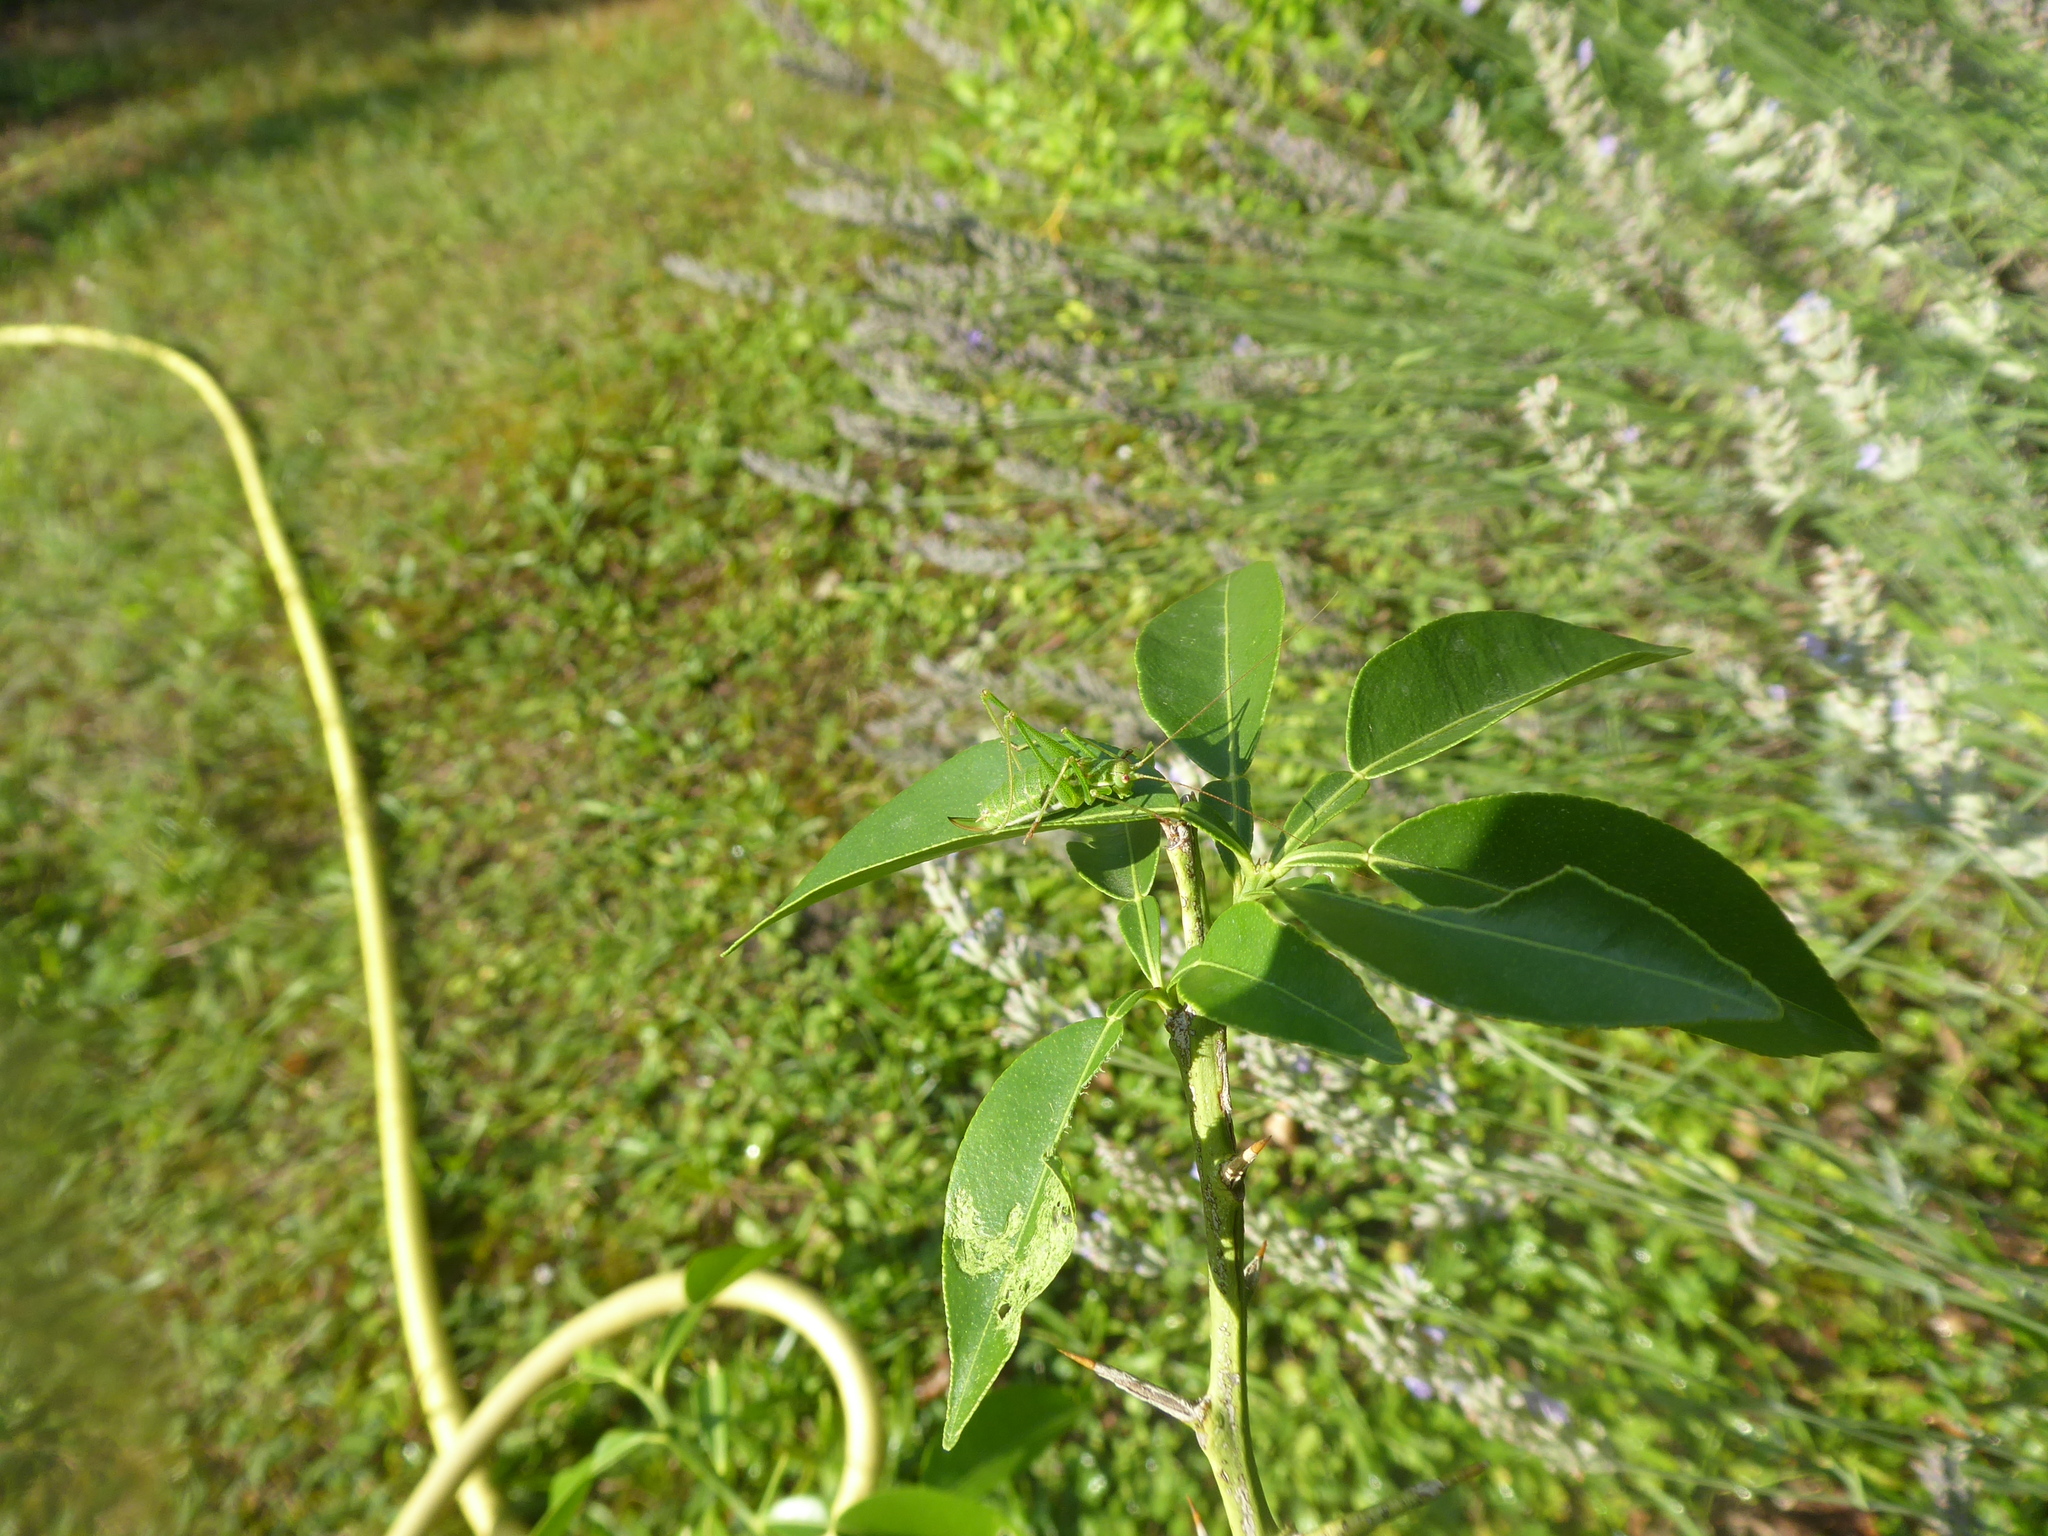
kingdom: Animalia
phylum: Arthropoda
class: Insecta
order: Orthoptera
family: Tettigoniidae
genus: Leptophyes
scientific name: Leptophyes albovittata
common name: Striped bush-cricket
